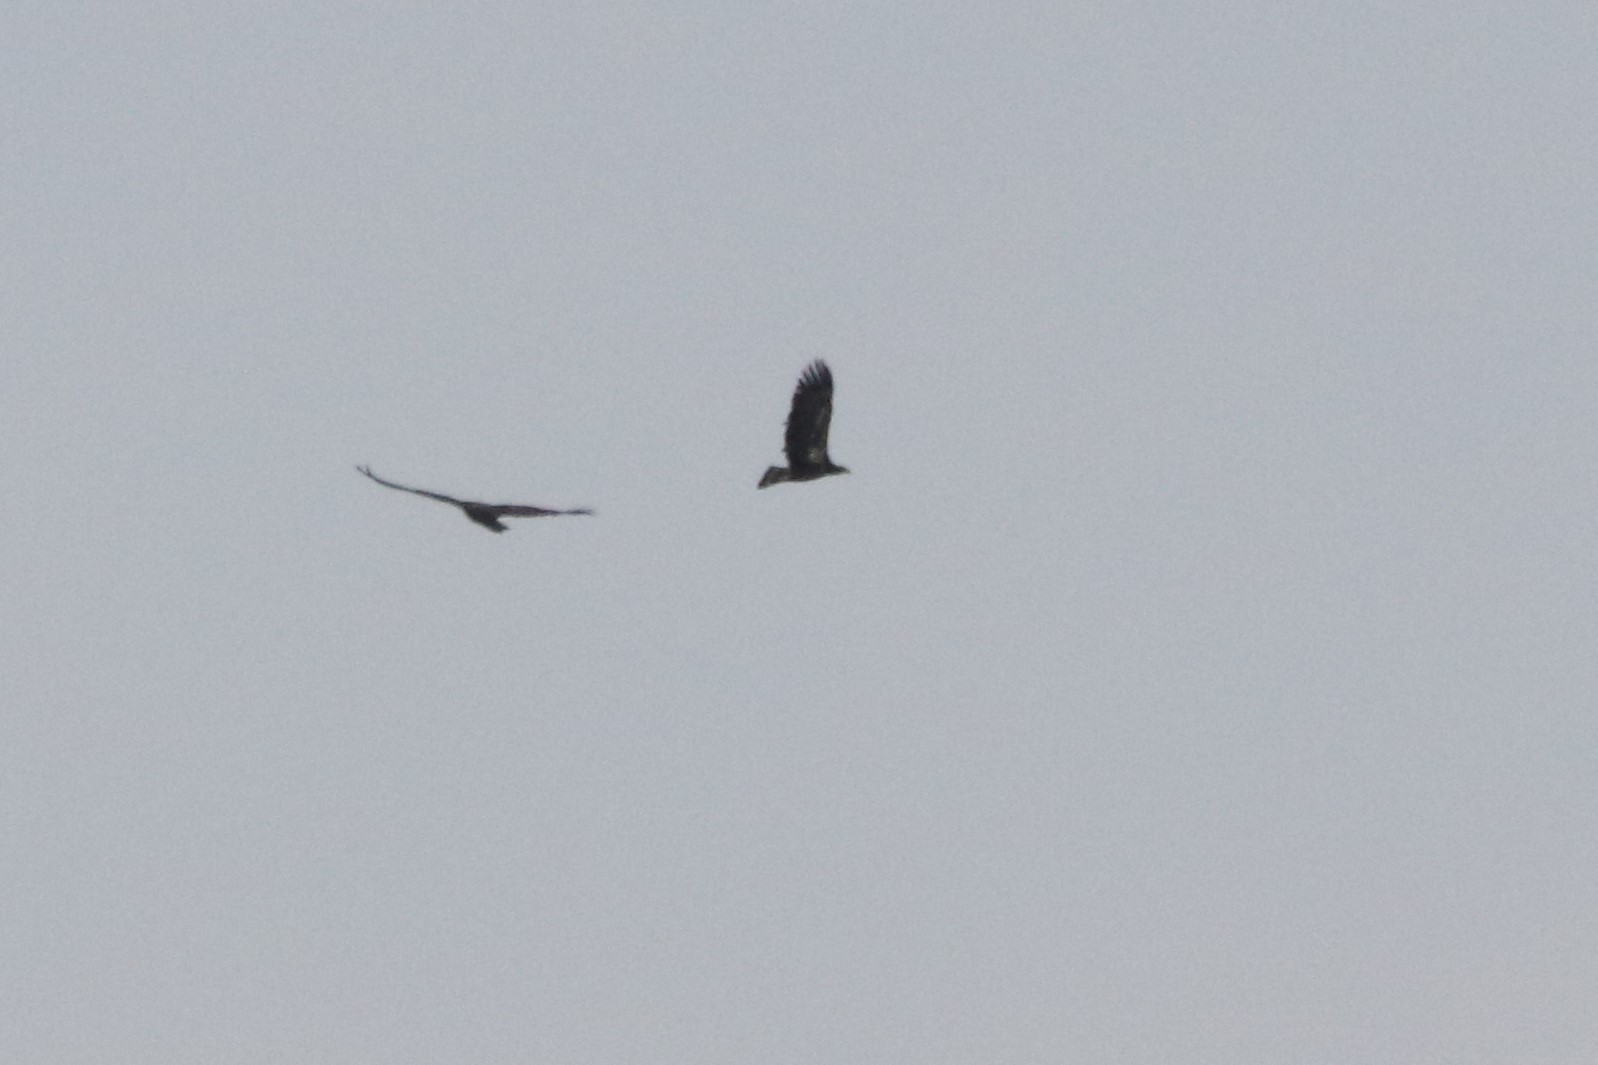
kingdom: Animalia
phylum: Chordata
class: Aves
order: Accipitriformes
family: Accipitridae
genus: Haliaeetus
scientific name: Haliaeetus leucocephalus
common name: Bald eagle
